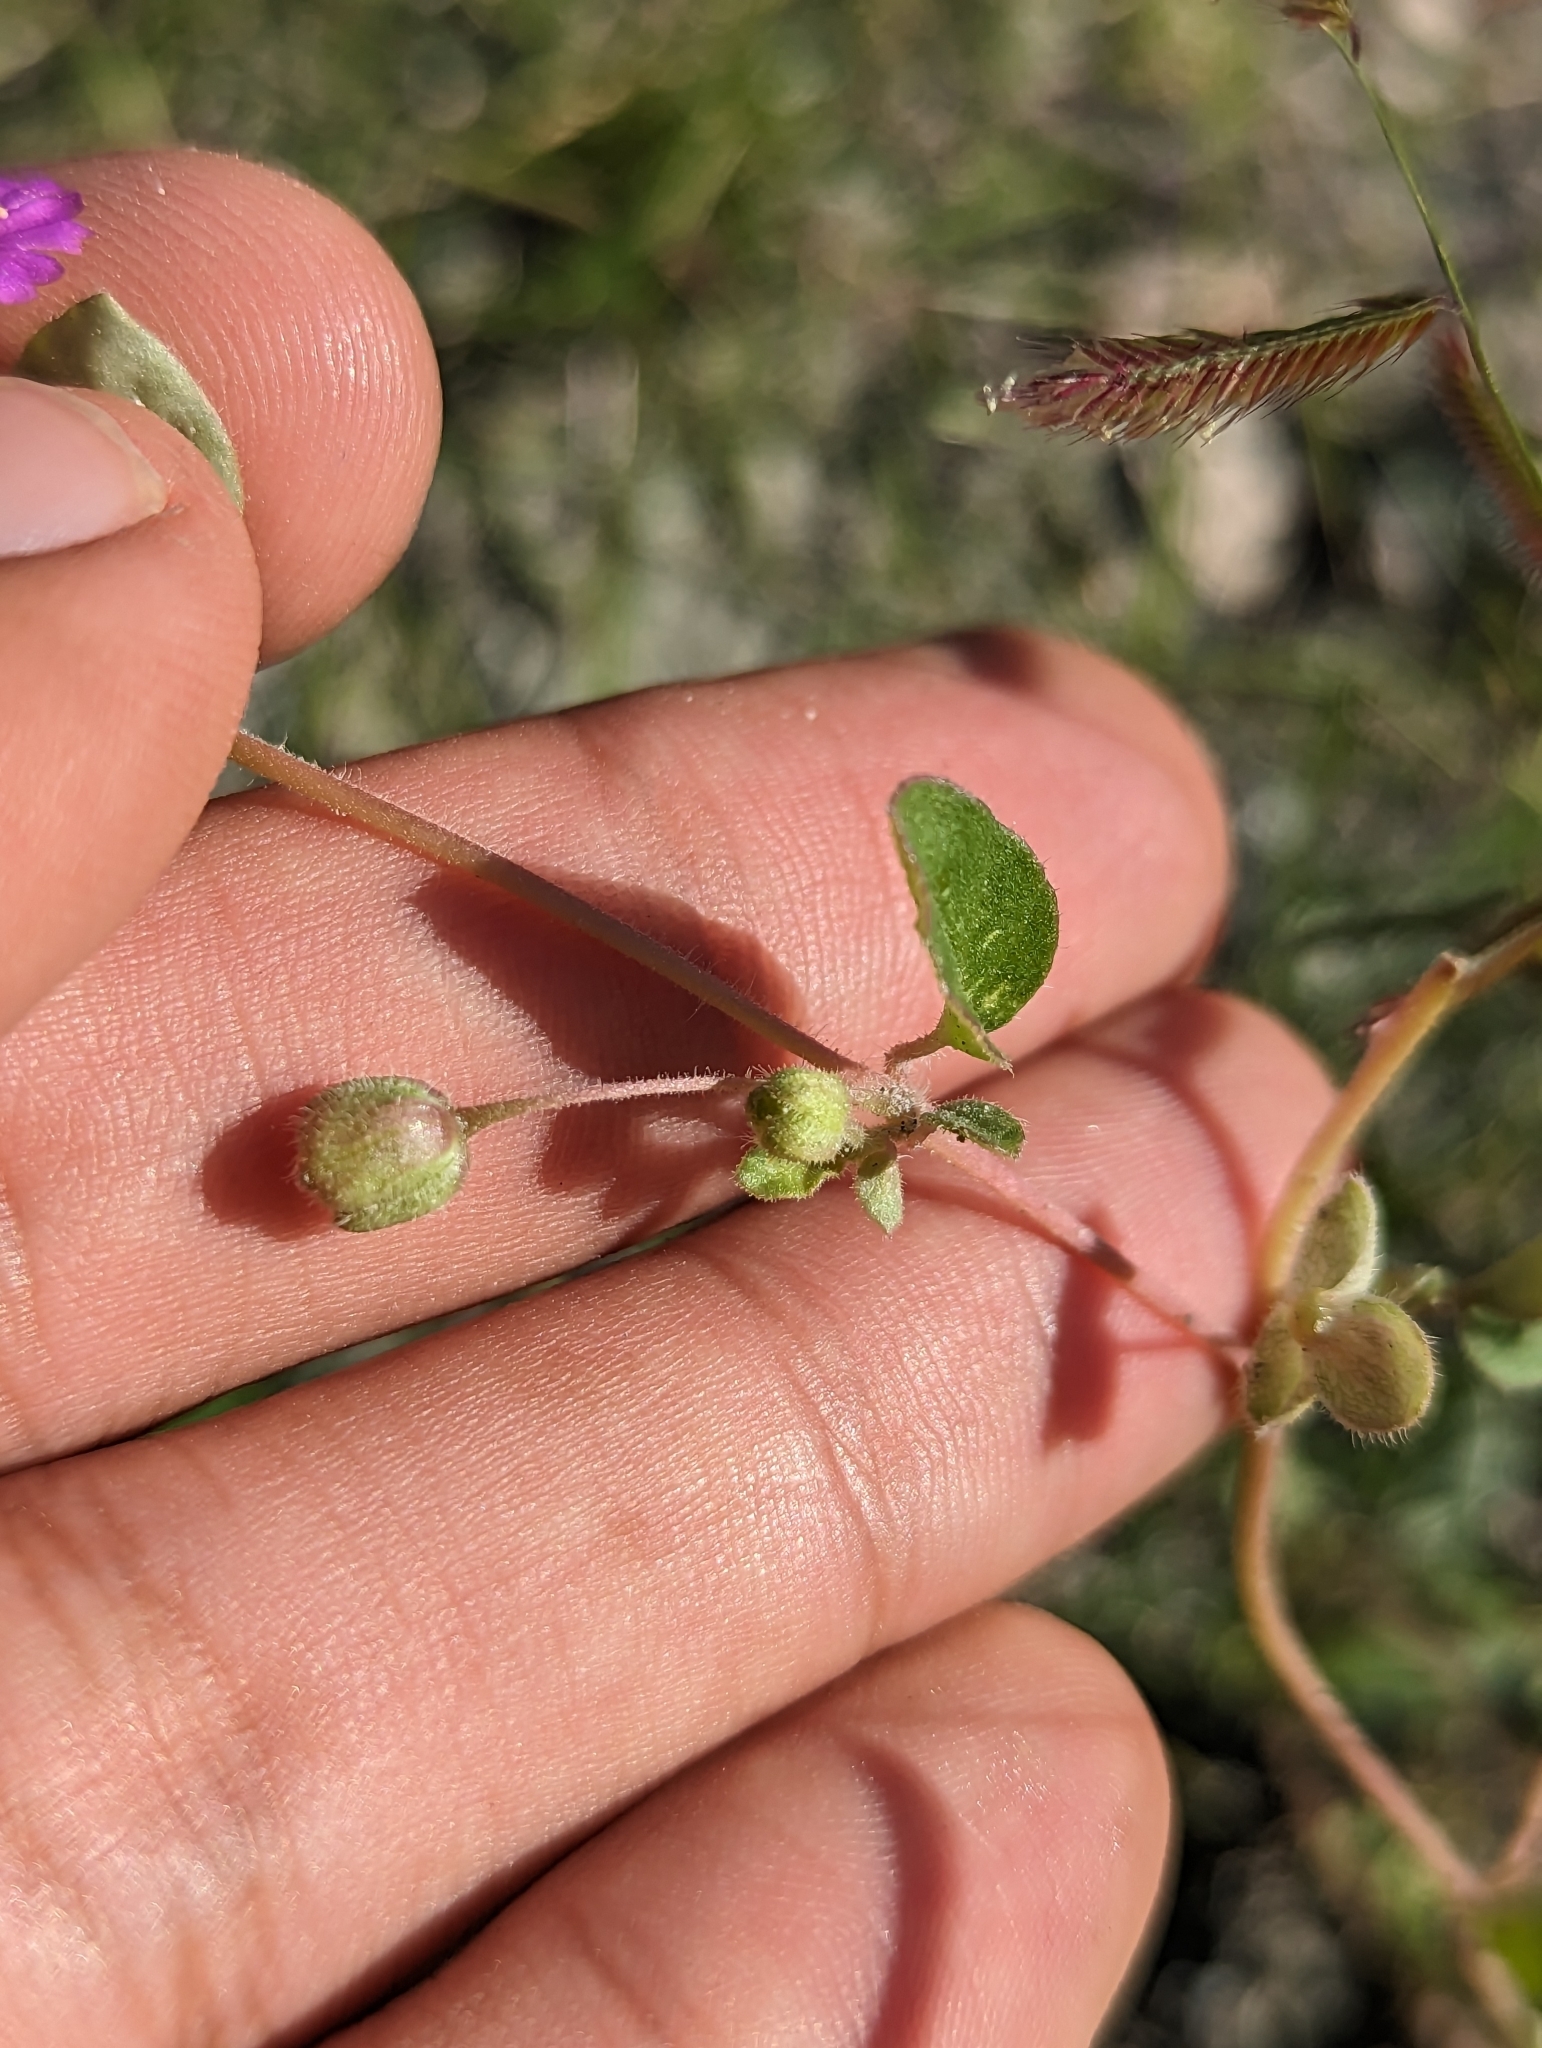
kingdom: Plantae
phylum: Tracheophyta
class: Magnoliopsida
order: Caryophyllales
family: Nyctaginaceae
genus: Allionia
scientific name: Allionia incarnata
